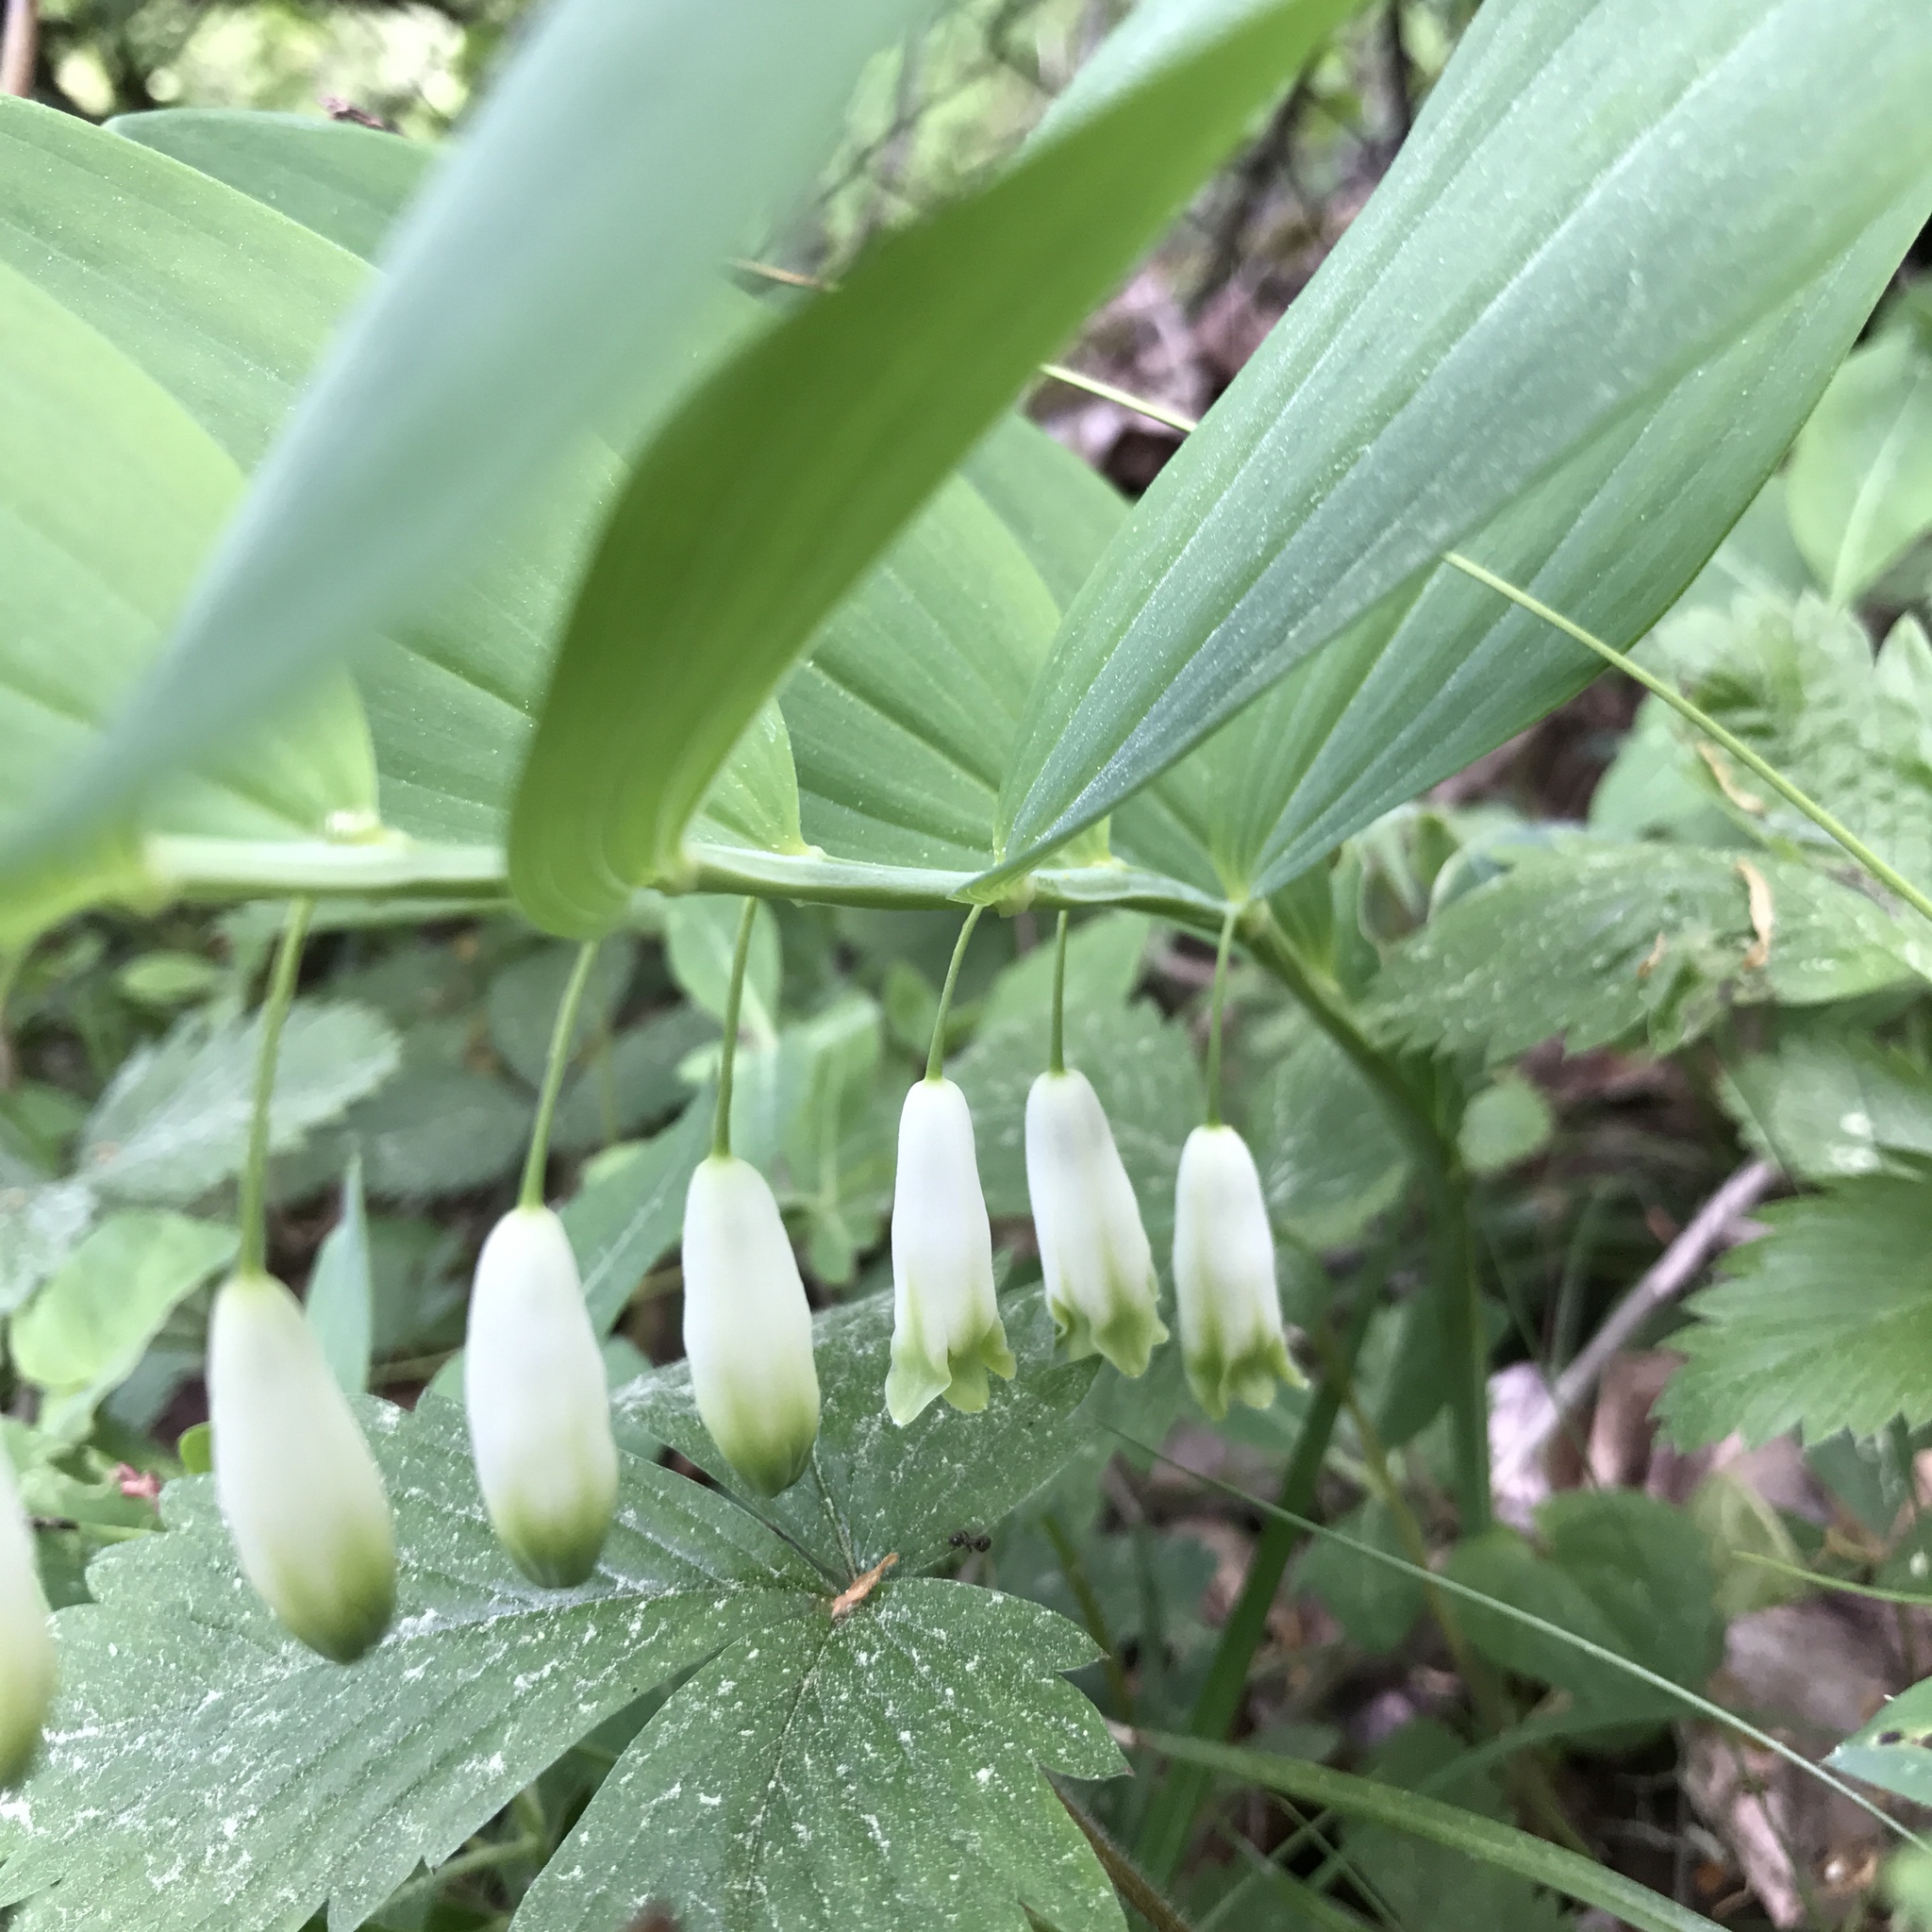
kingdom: Plantae
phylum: Tracheophyta
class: Liliopsida
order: Asparagales
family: Asparagaceae
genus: Polygonatum
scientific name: Polygonatum odoratum
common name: Angular solomon's-seal
